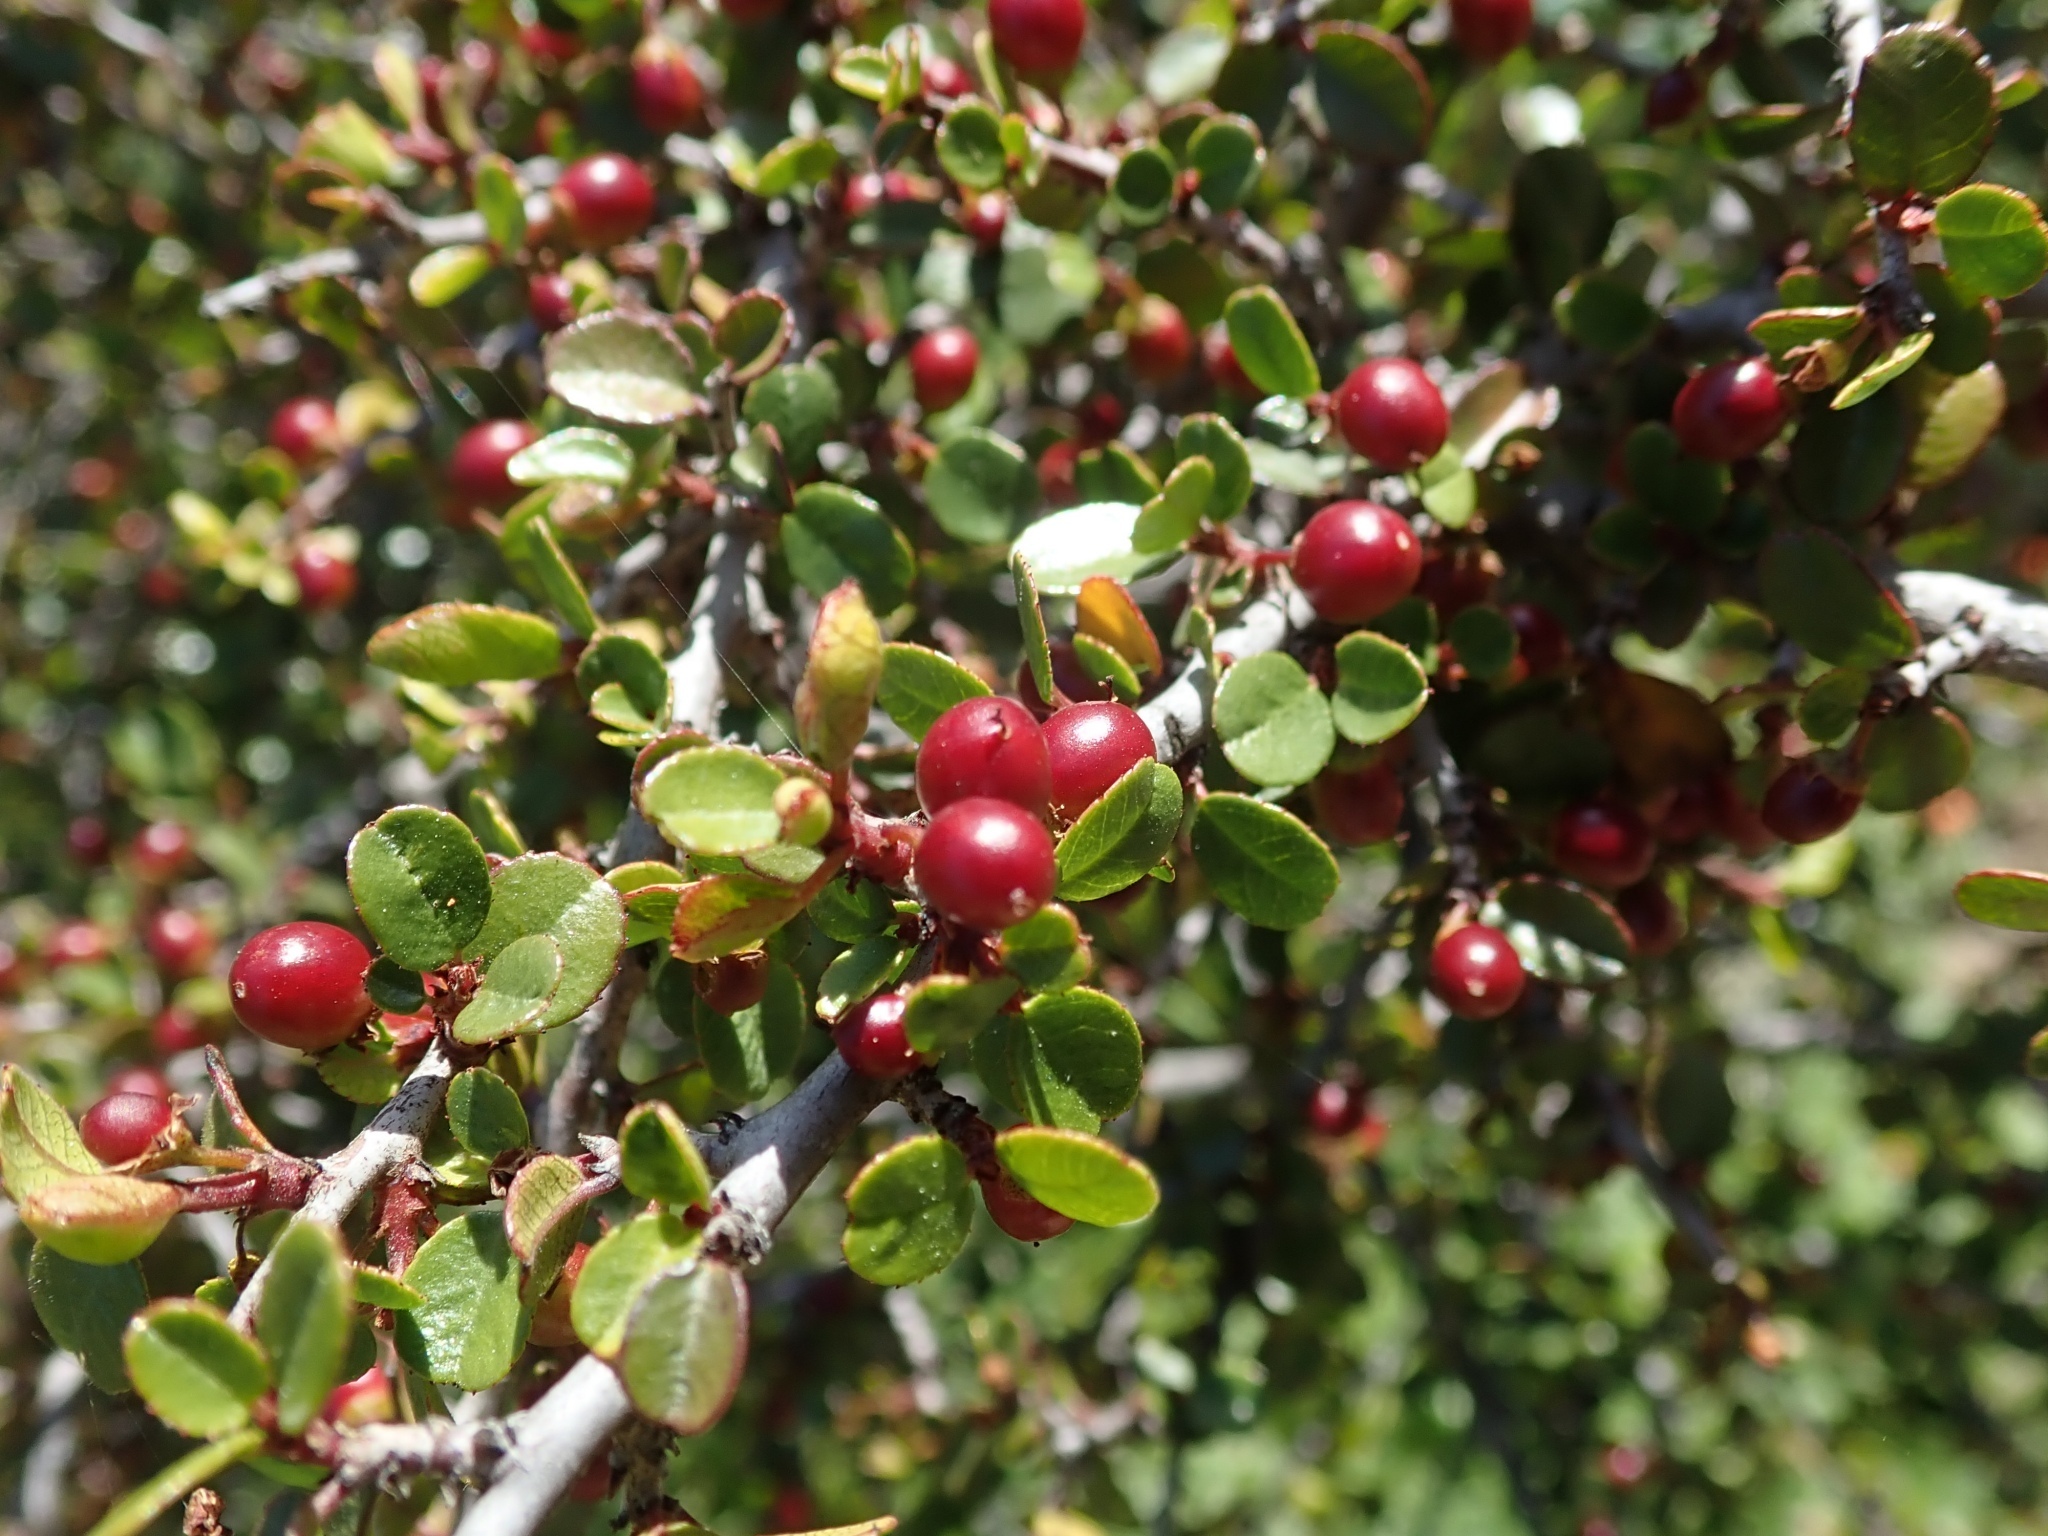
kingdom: Plantae
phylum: Tracheophyta
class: Magnoliopsida
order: Rosales
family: Rhamnaceae
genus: Endotropis
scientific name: Endotropis crocea
